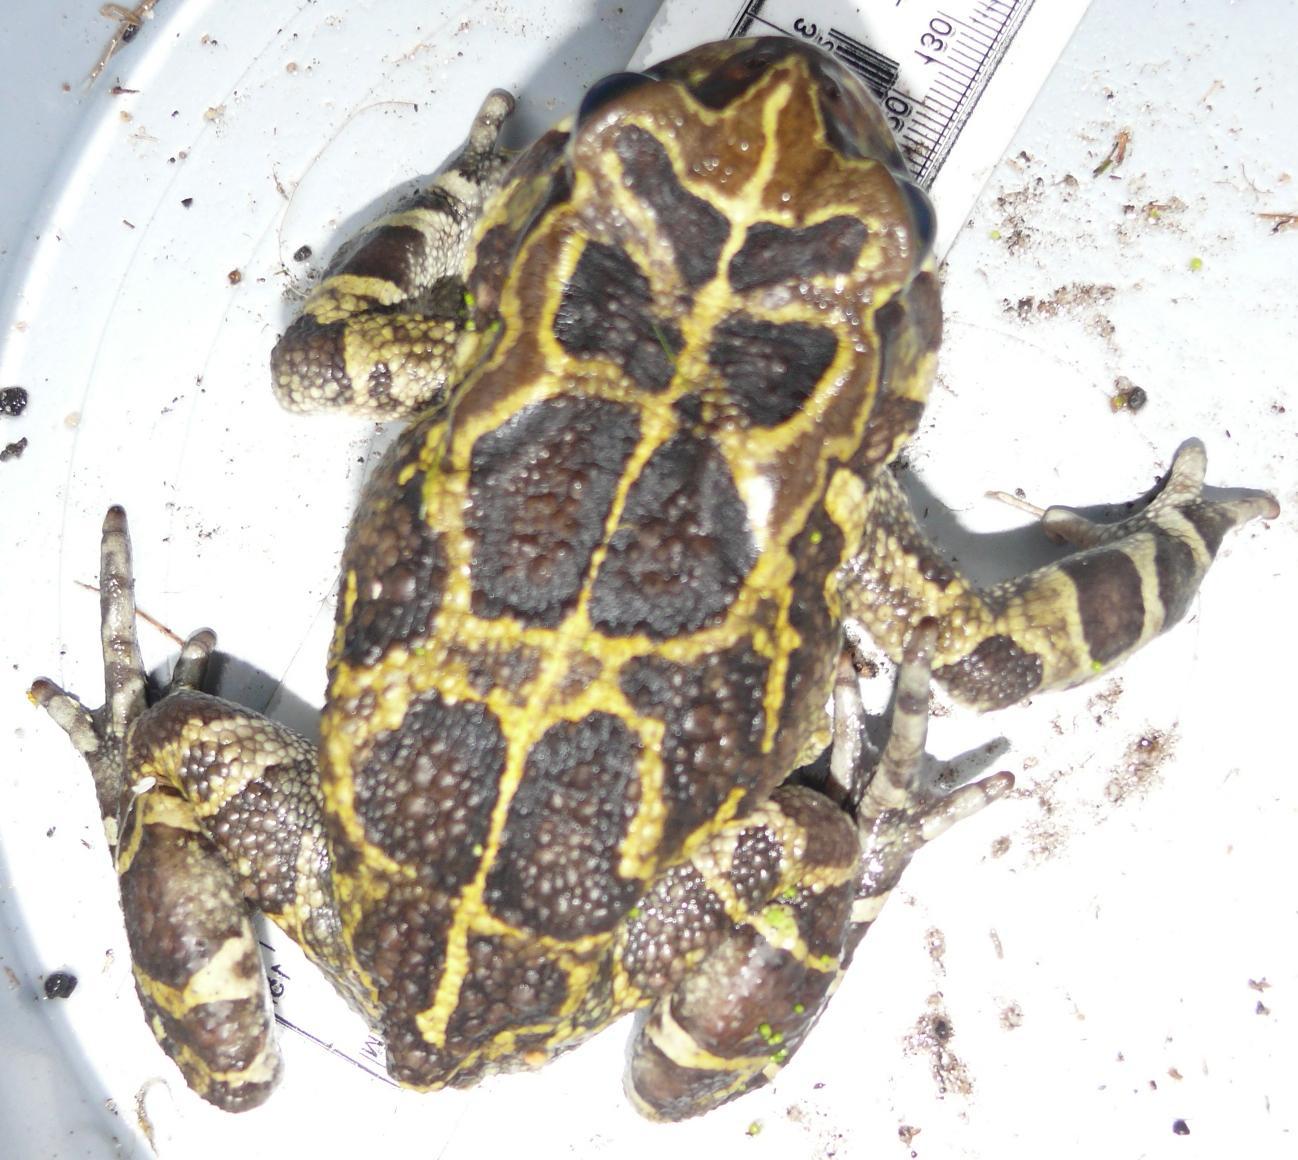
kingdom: Animalia
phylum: Chordata
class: Amphibia
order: Anura
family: Bufonidae
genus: Sclerophrys
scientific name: Sclerophrys pantherina
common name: Panther toad
